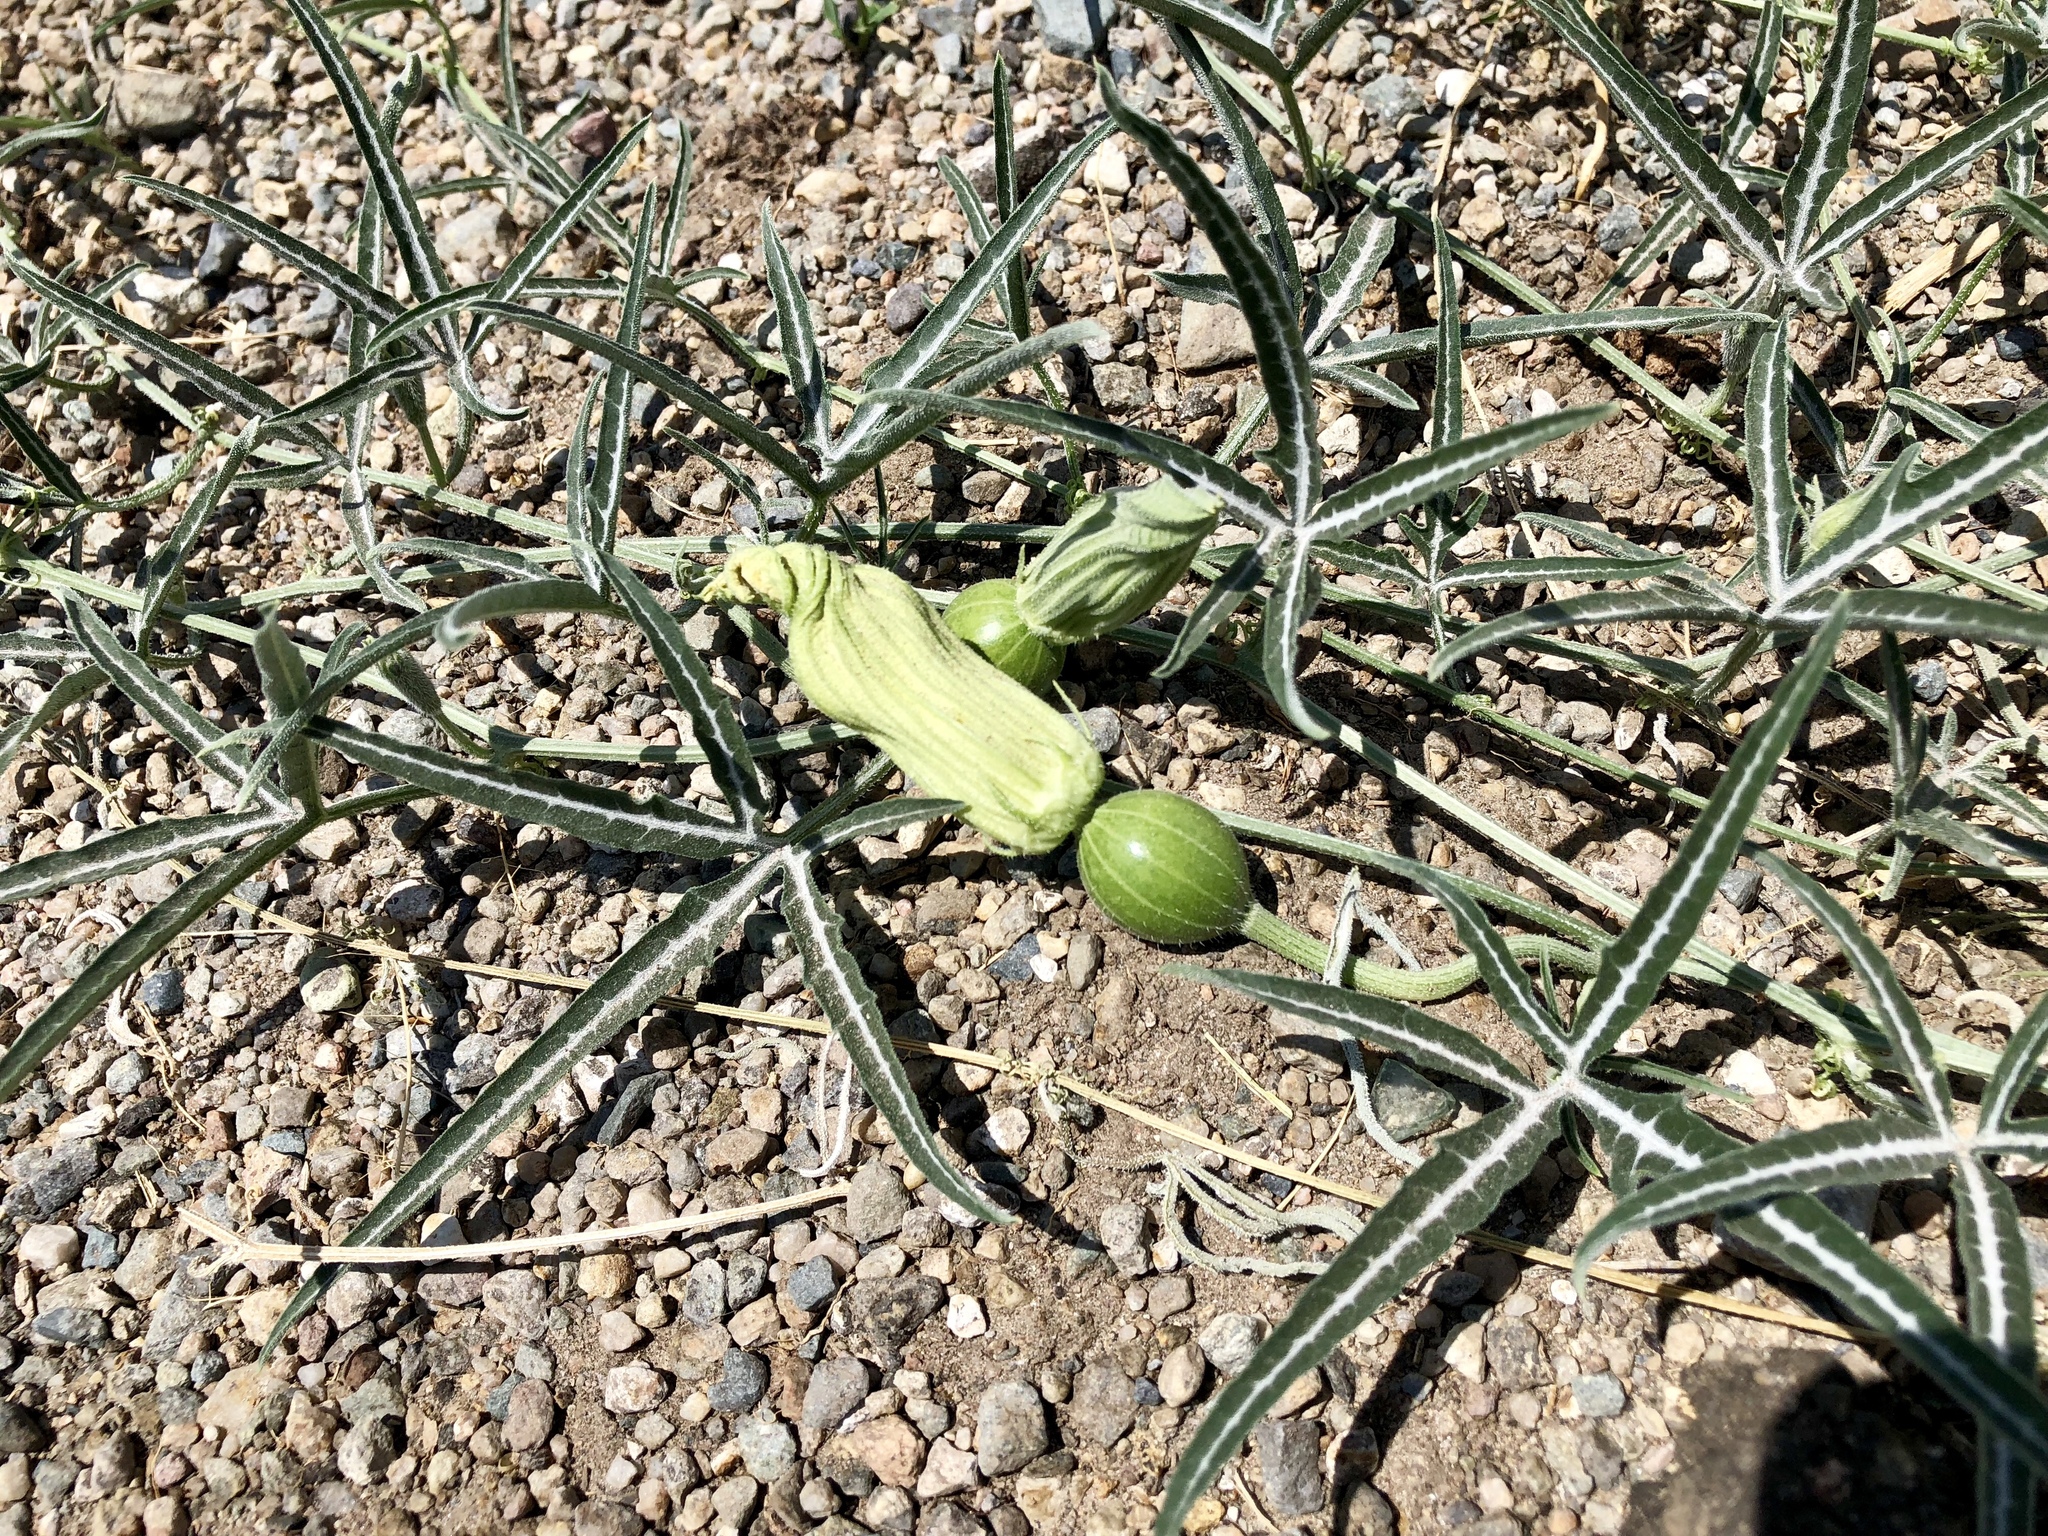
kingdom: Plantae
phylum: Tracheophyta
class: Magnoliopsida
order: Cucurbitales
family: Cucurbitaceae
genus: Cucurbita
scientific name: Cucurbita digitata
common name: Finger-leaf gourd
